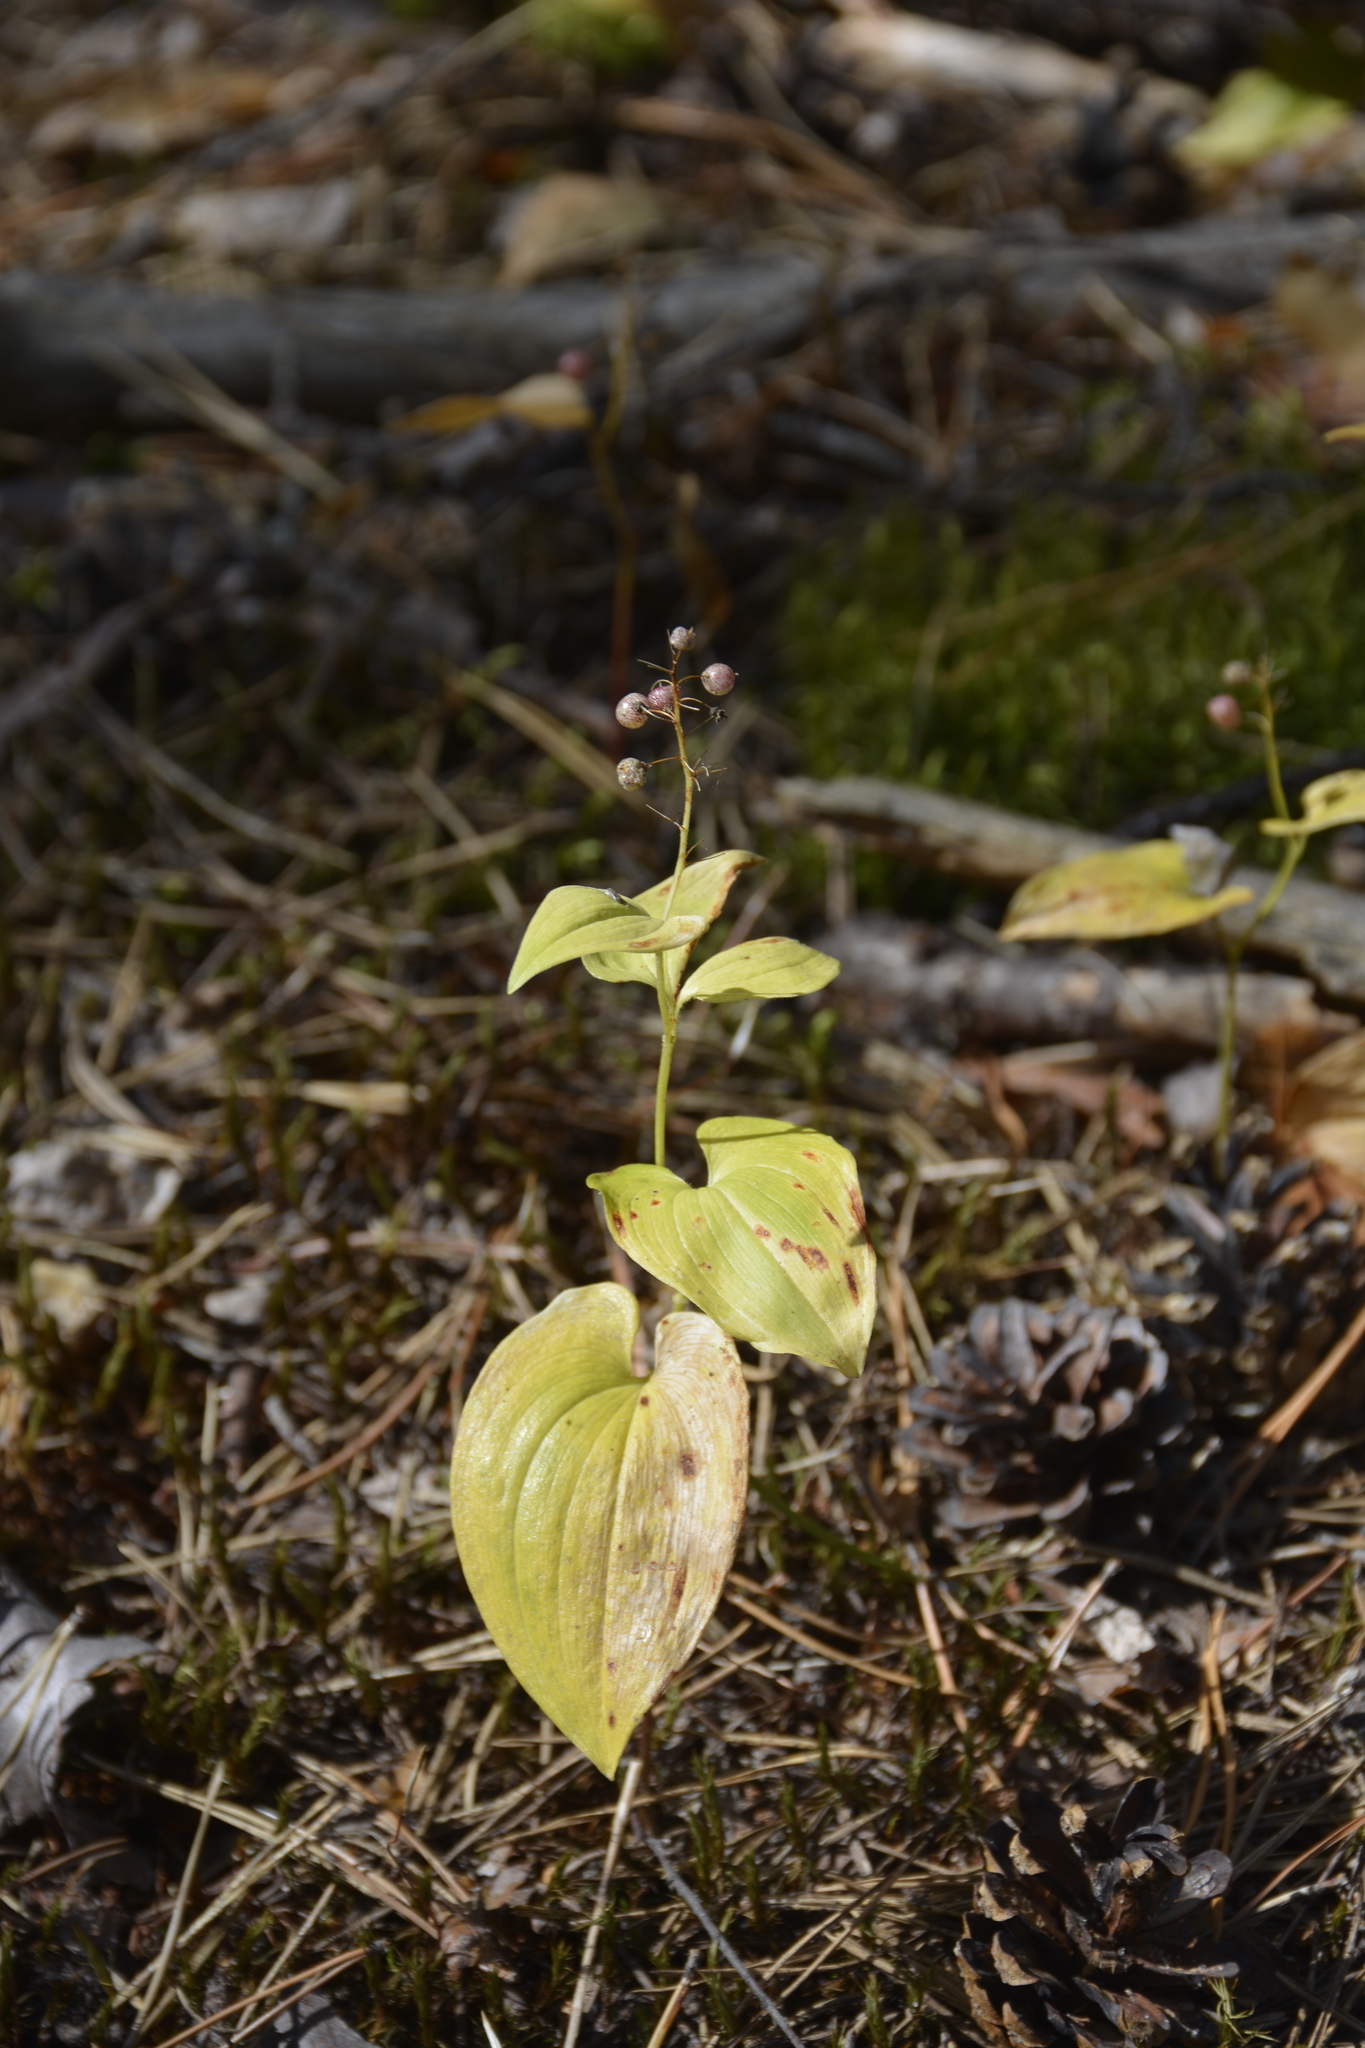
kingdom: Plantae
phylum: Tracheophyta
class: Liliopsida
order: Asparagales
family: Asparagaceae
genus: Maianthemum
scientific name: Maianthemum bifolium
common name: May lily
